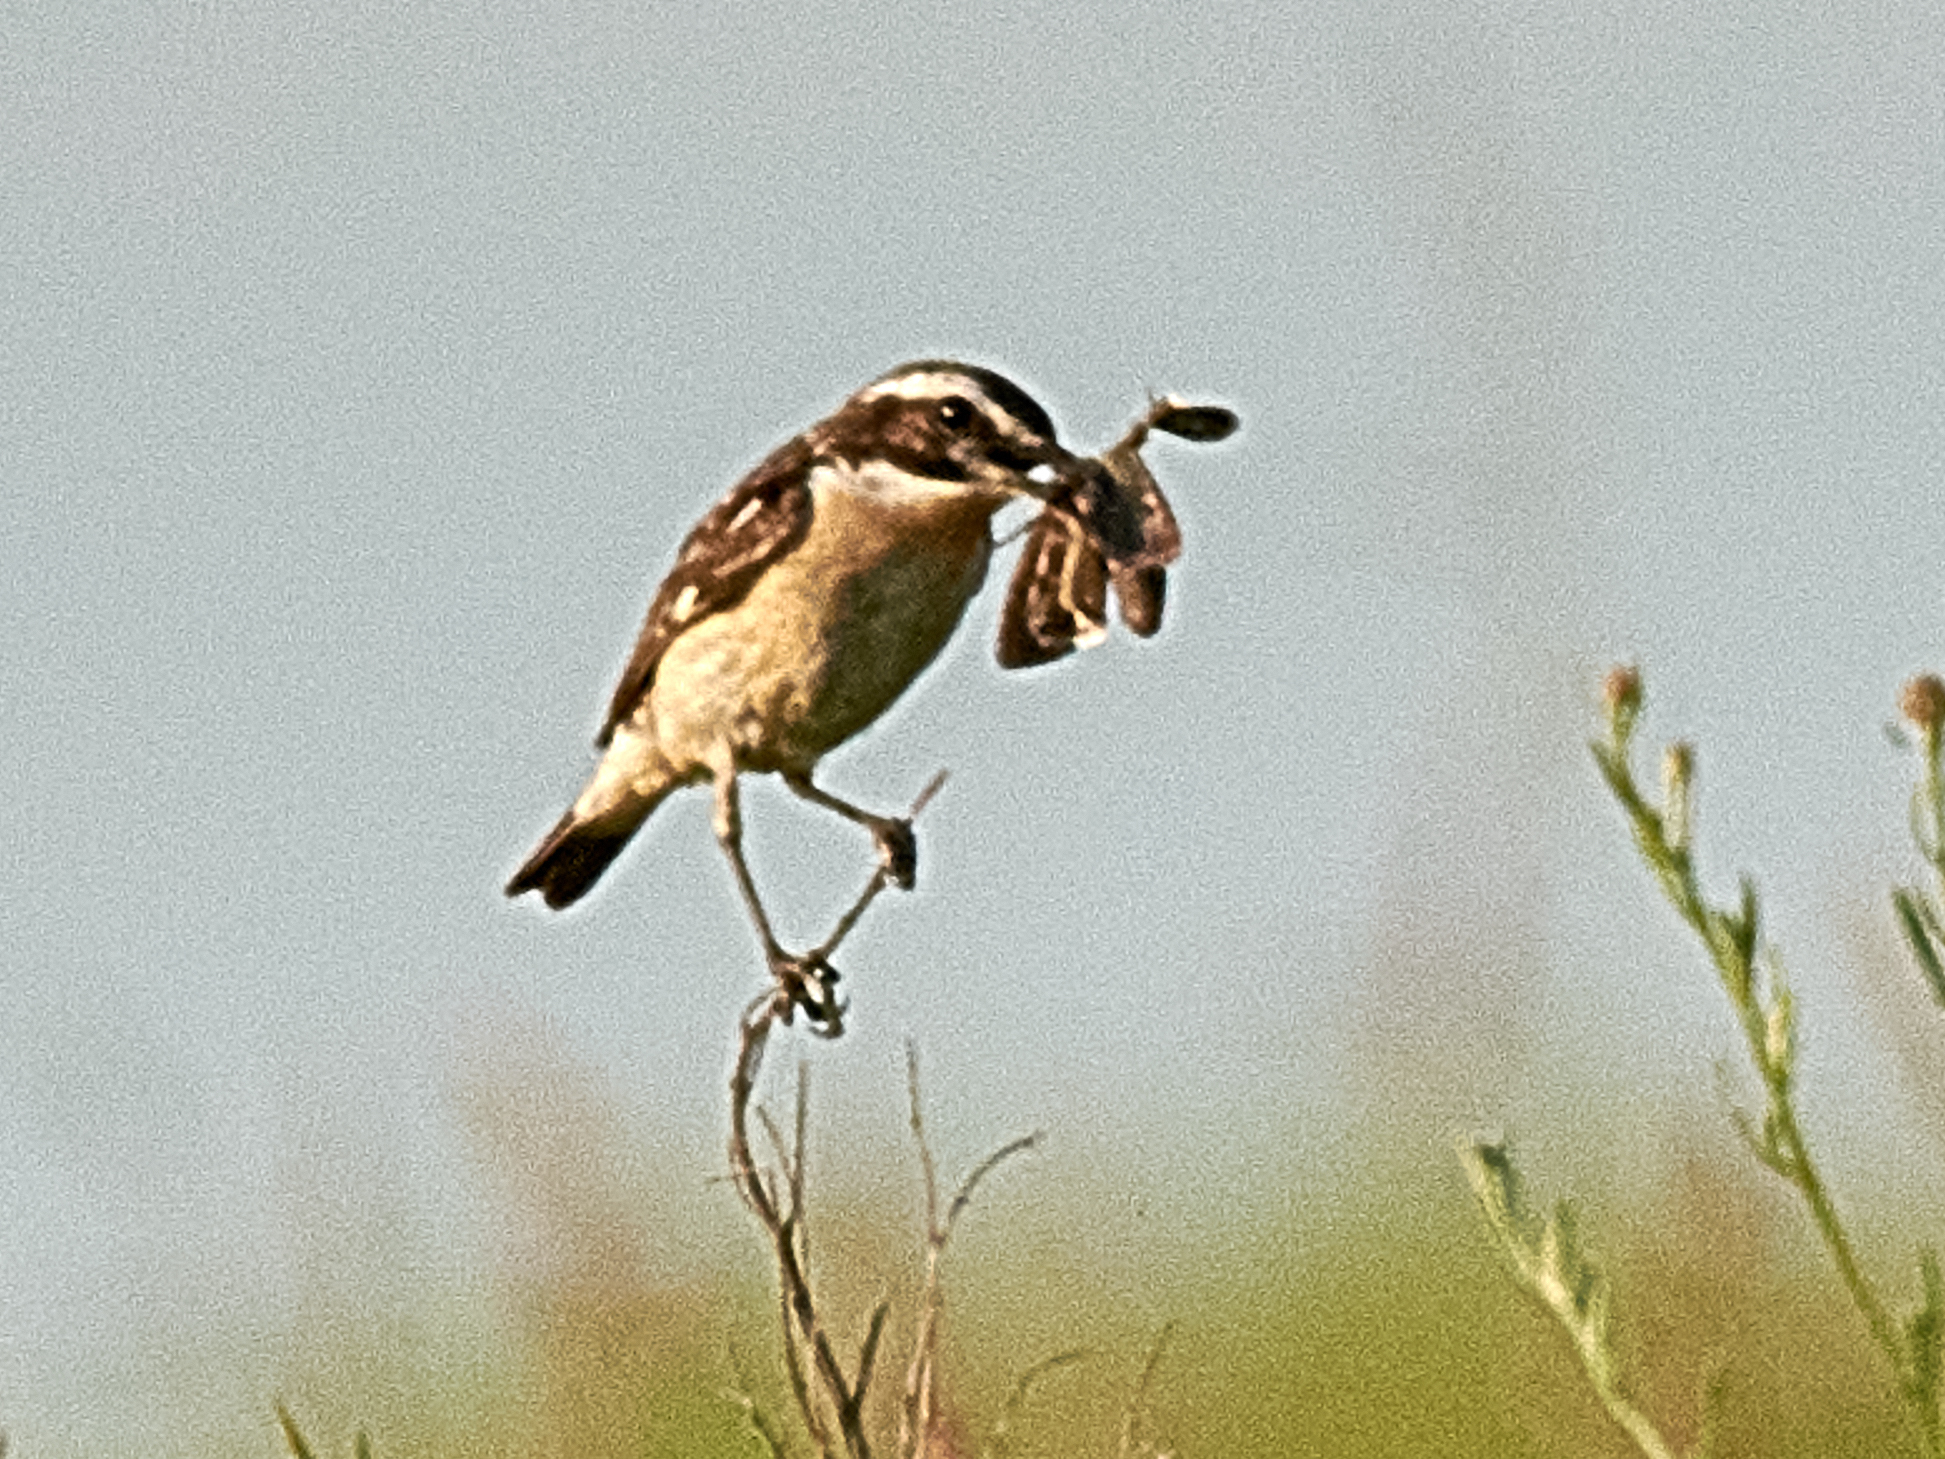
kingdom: Animalia
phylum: Chordata
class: Aves
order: Passeriformes
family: Muscicapidae
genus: Saxicola
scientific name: Saxicola rubetra
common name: Whinchat
